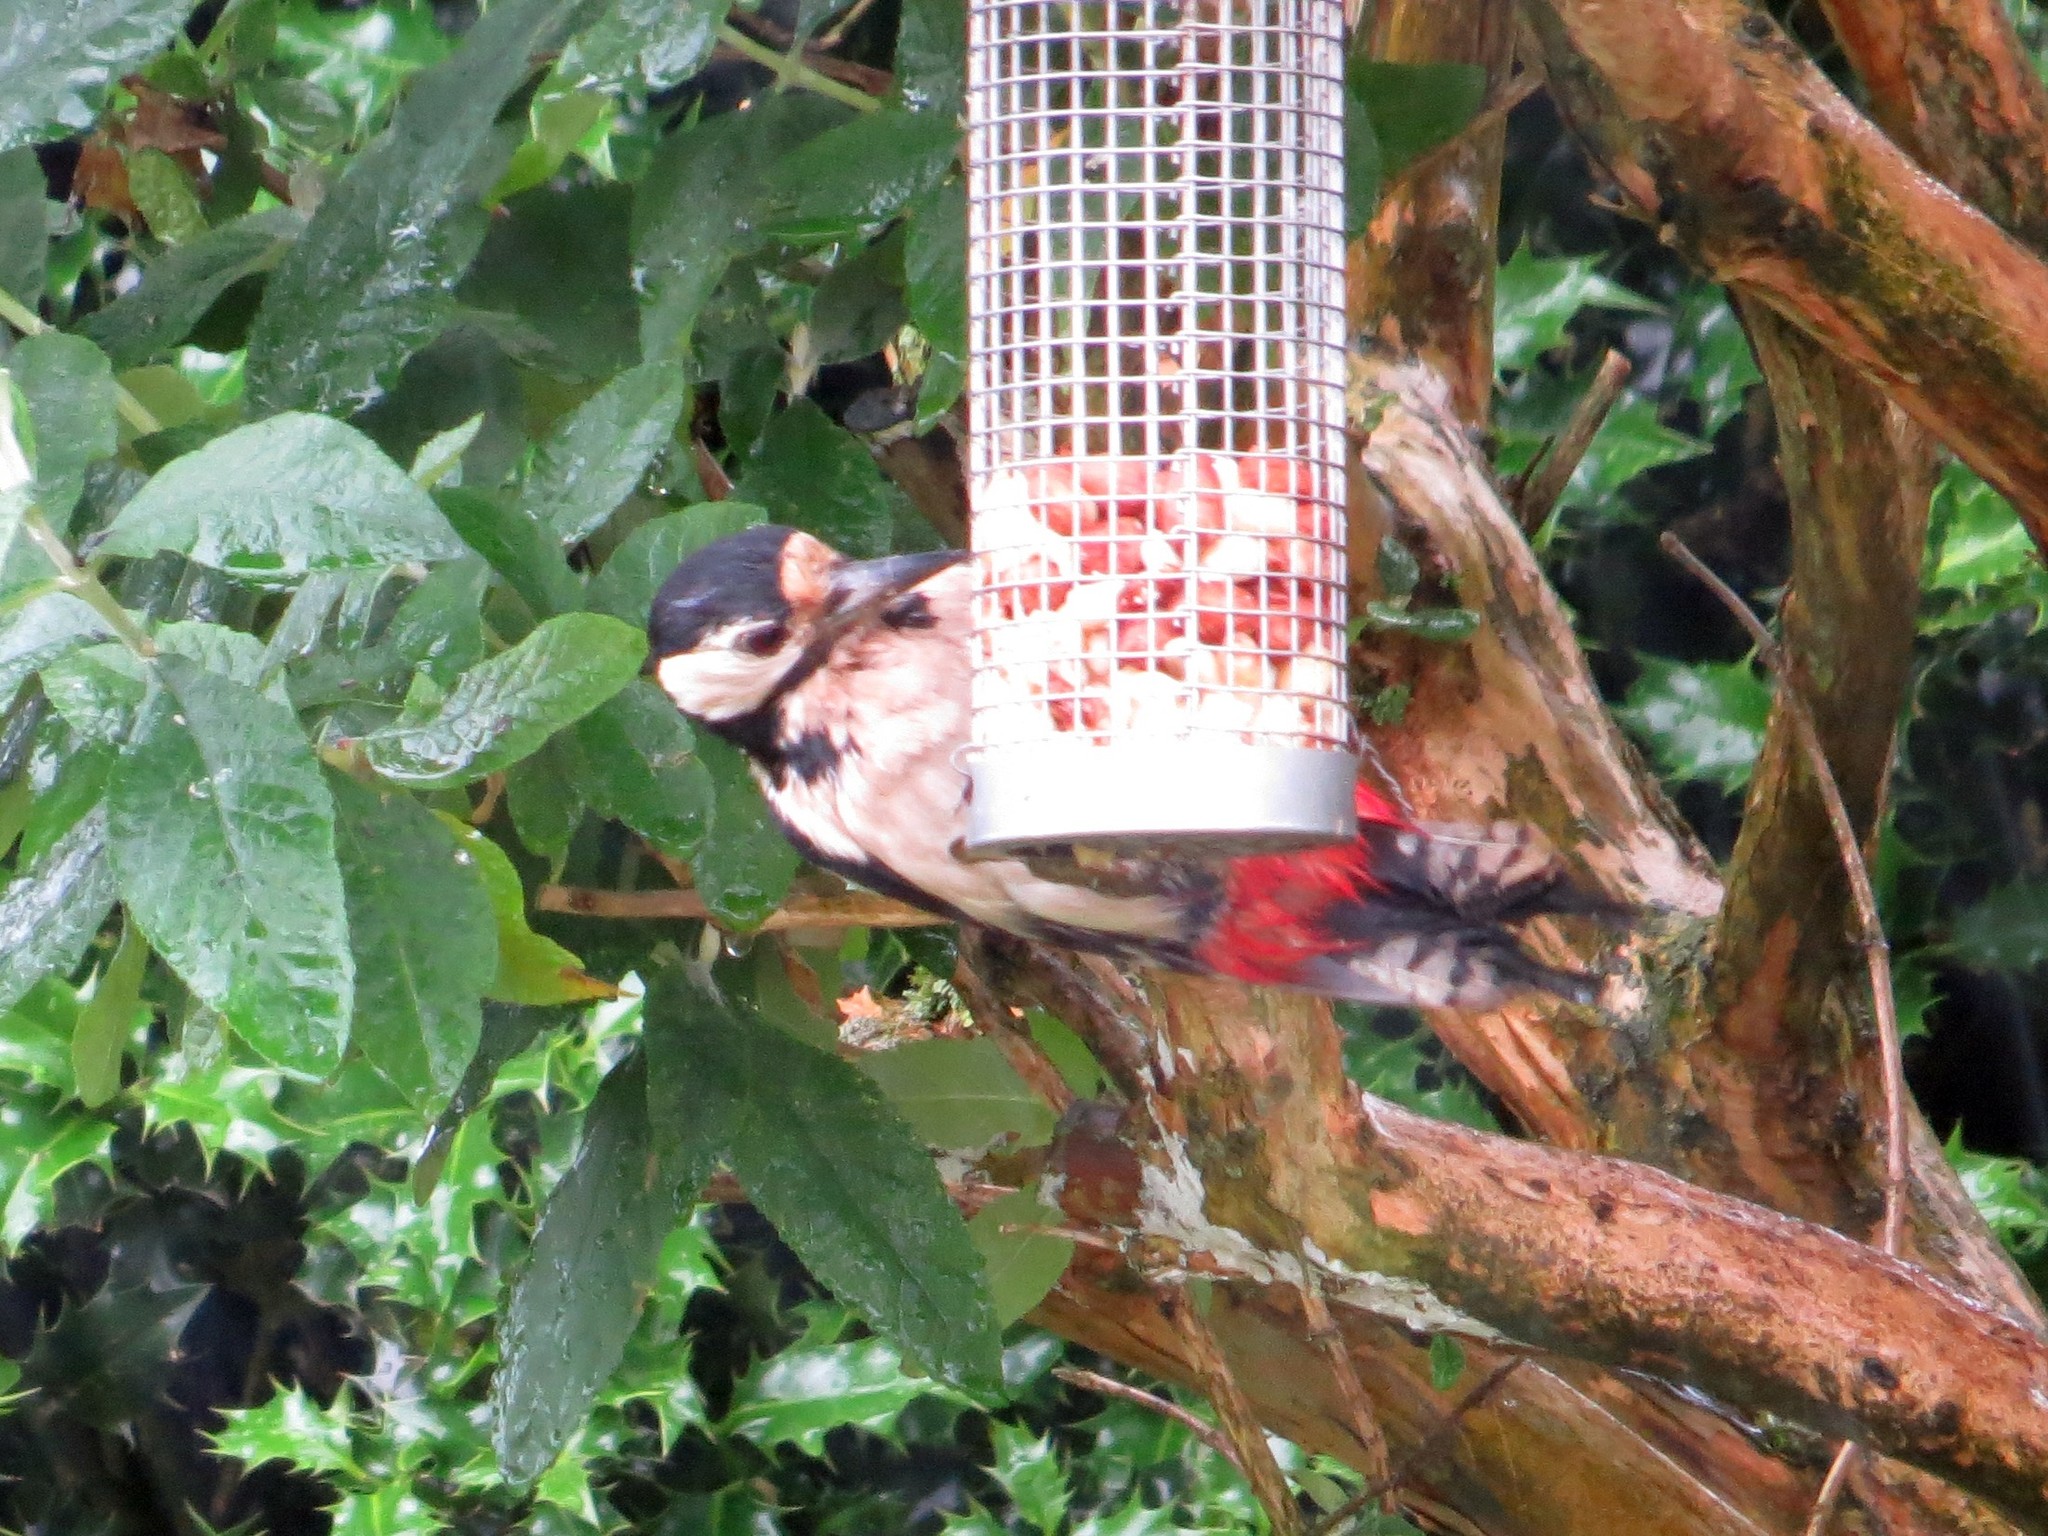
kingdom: Animalia
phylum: Chordata
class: Aves
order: Piciformes
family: Picidae
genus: Dendrocopos
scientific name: Dendrocopos major
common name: Great spotted woodpecker
